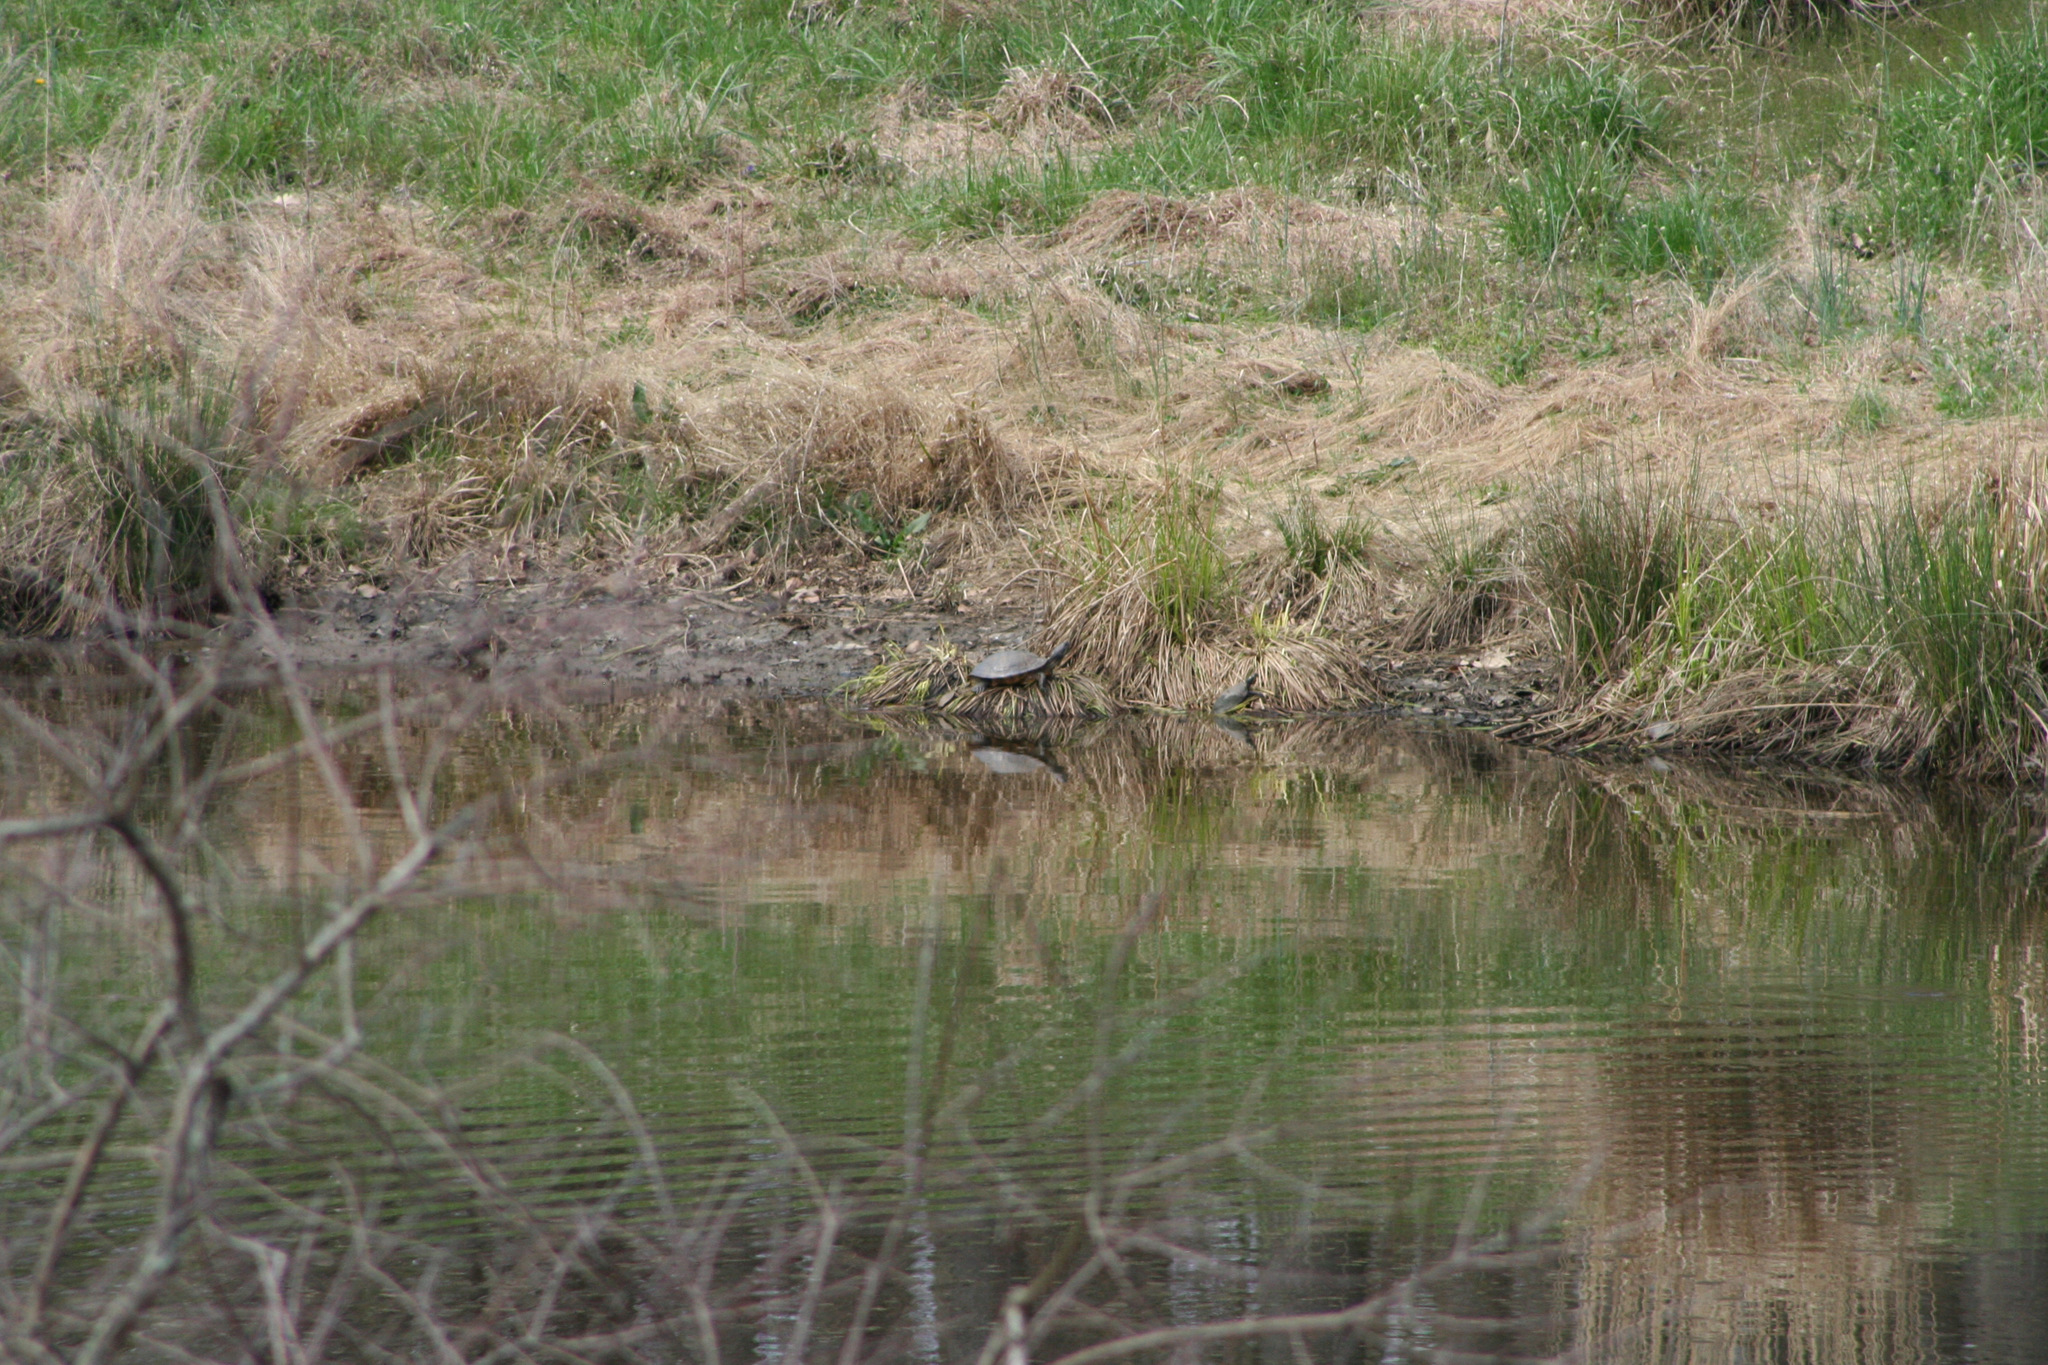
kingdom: Animalia
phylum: Chordata
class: Testudines
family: Emydidae
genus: Trachemys
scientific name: Trachemys scripta
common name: Slider
